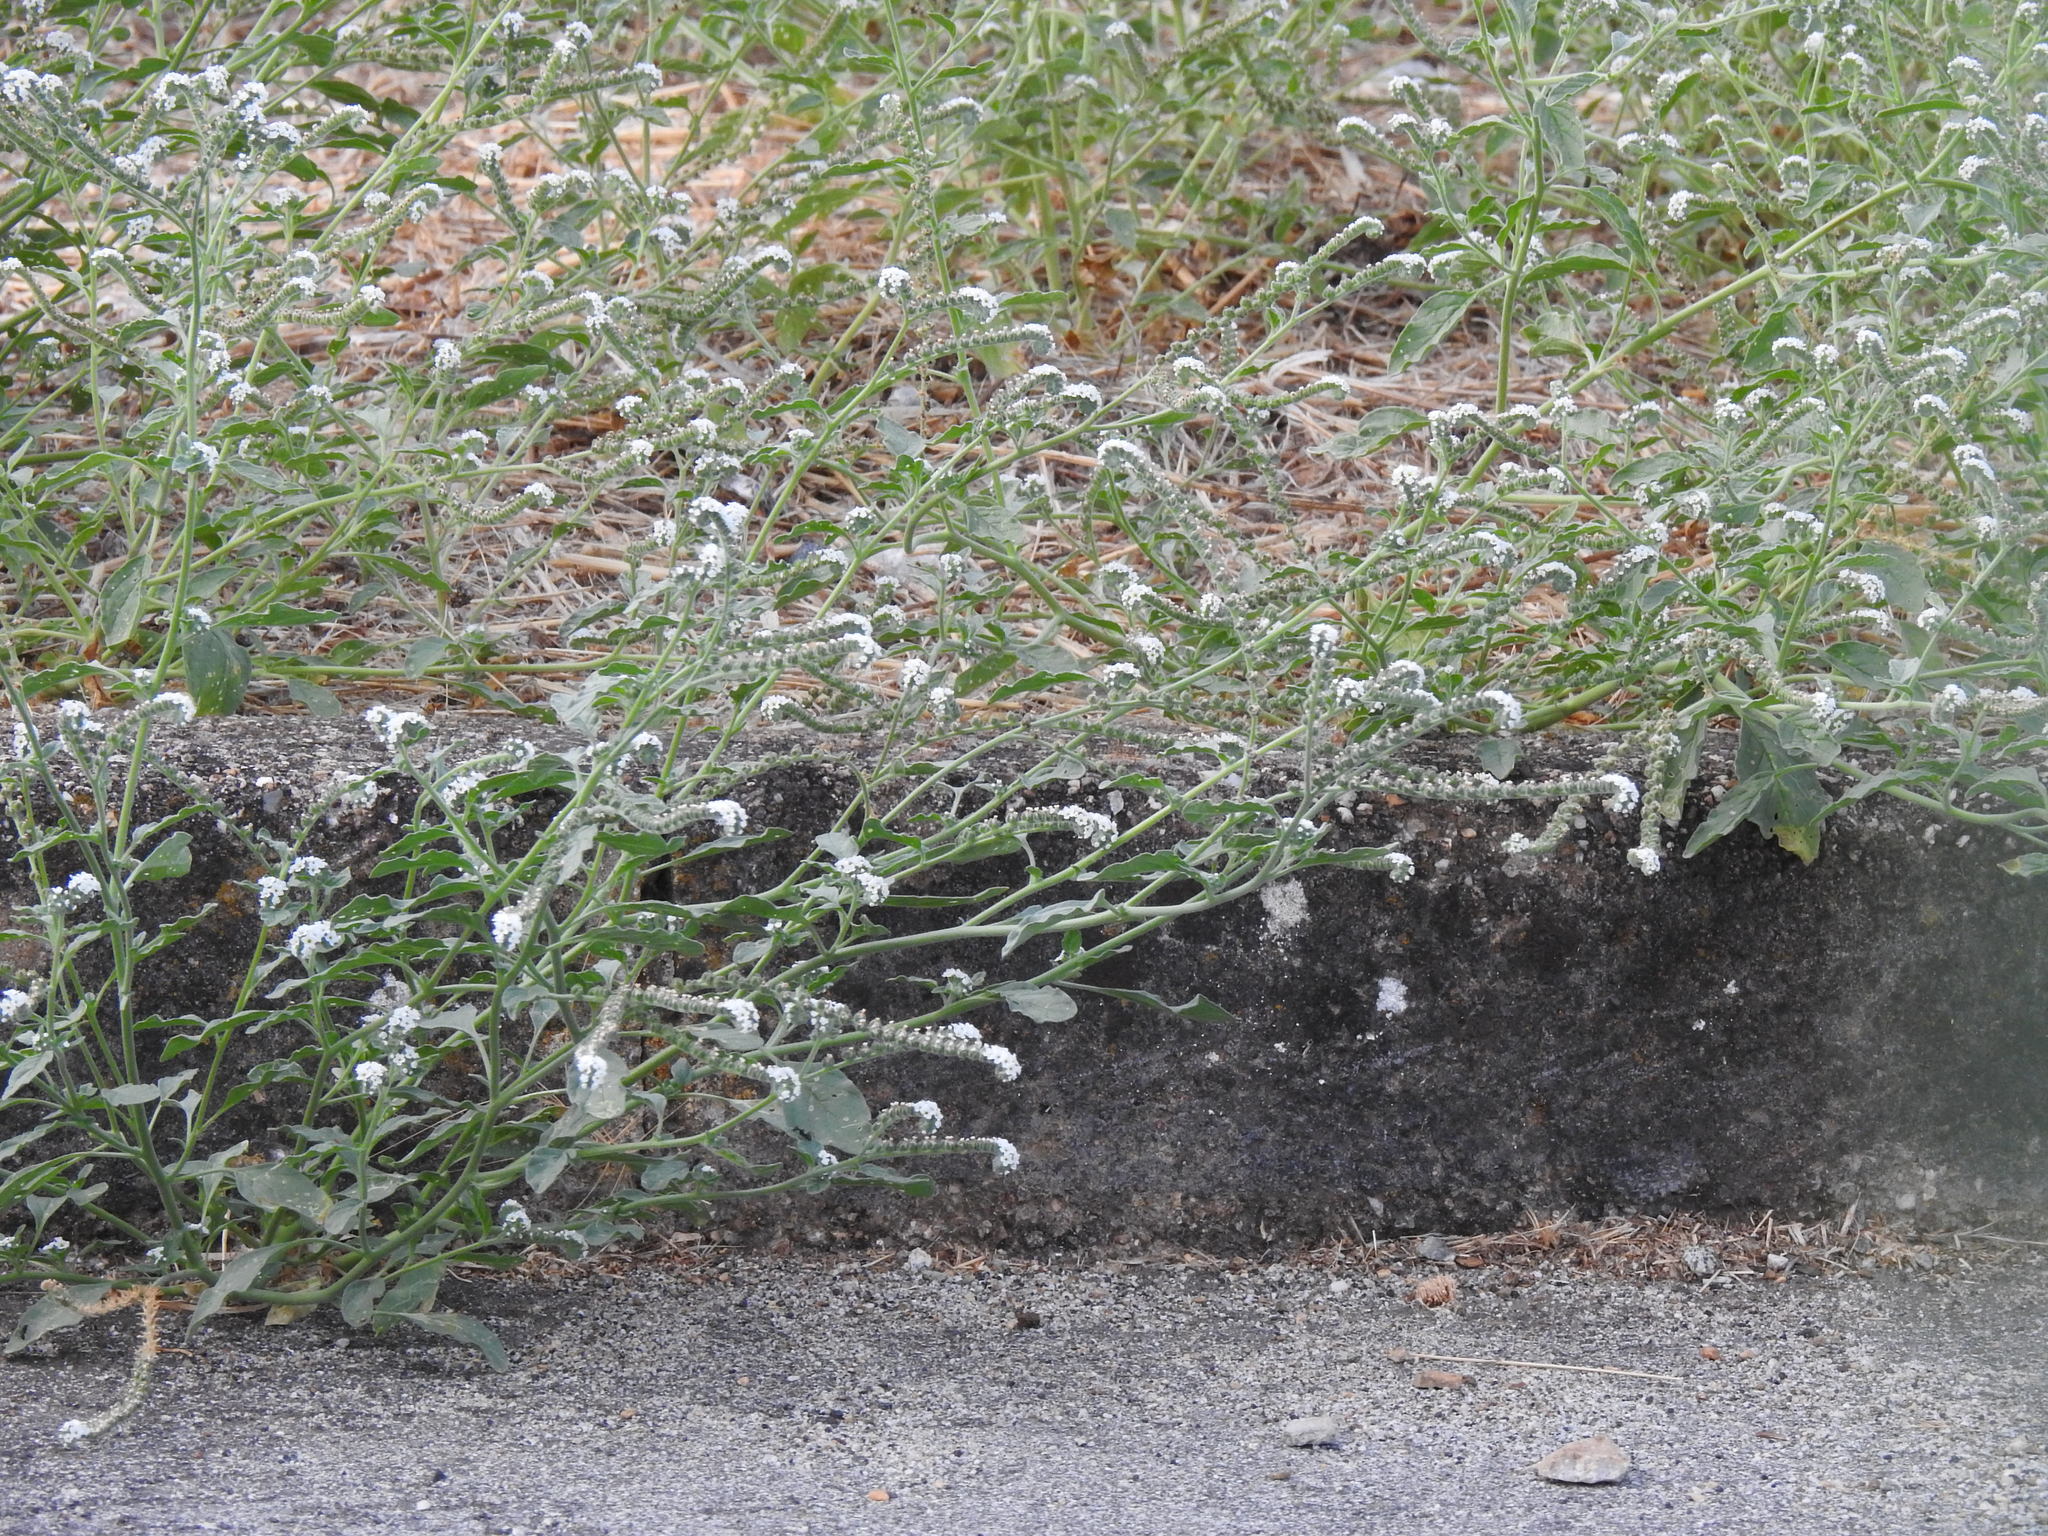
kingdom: Plantae
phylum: Tracheophyta
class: Magnoliopsida
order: Boraginales
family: Heliotropiaceae
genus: Heliotropium
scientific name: Heliotropium europaeum
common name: European heliotrope
